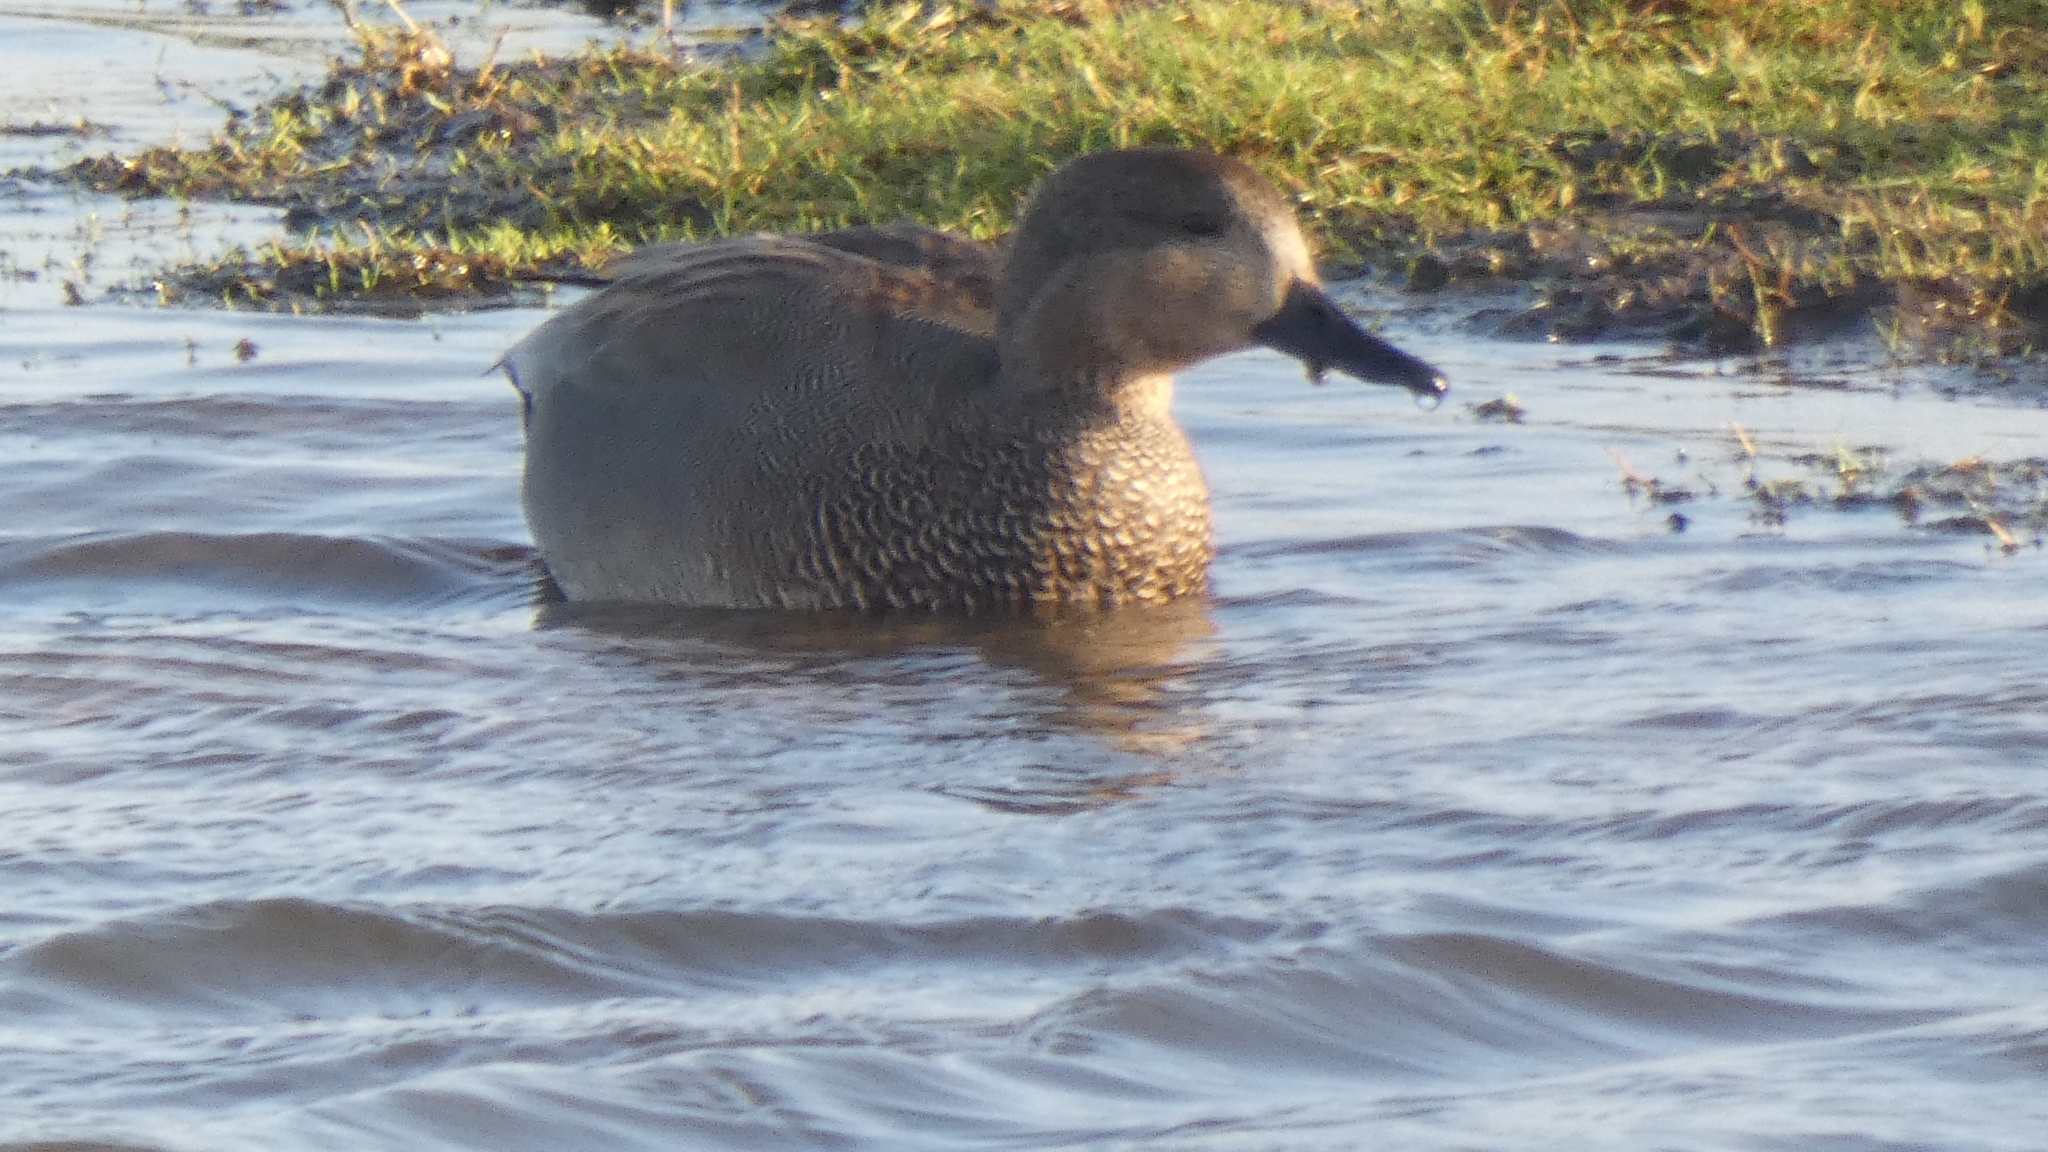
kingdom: Animalia
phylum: Chordata
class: Aves
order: Anseriformes
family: Anatidae
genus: Mareca
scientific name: Mareca strepera
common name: Gadwall
